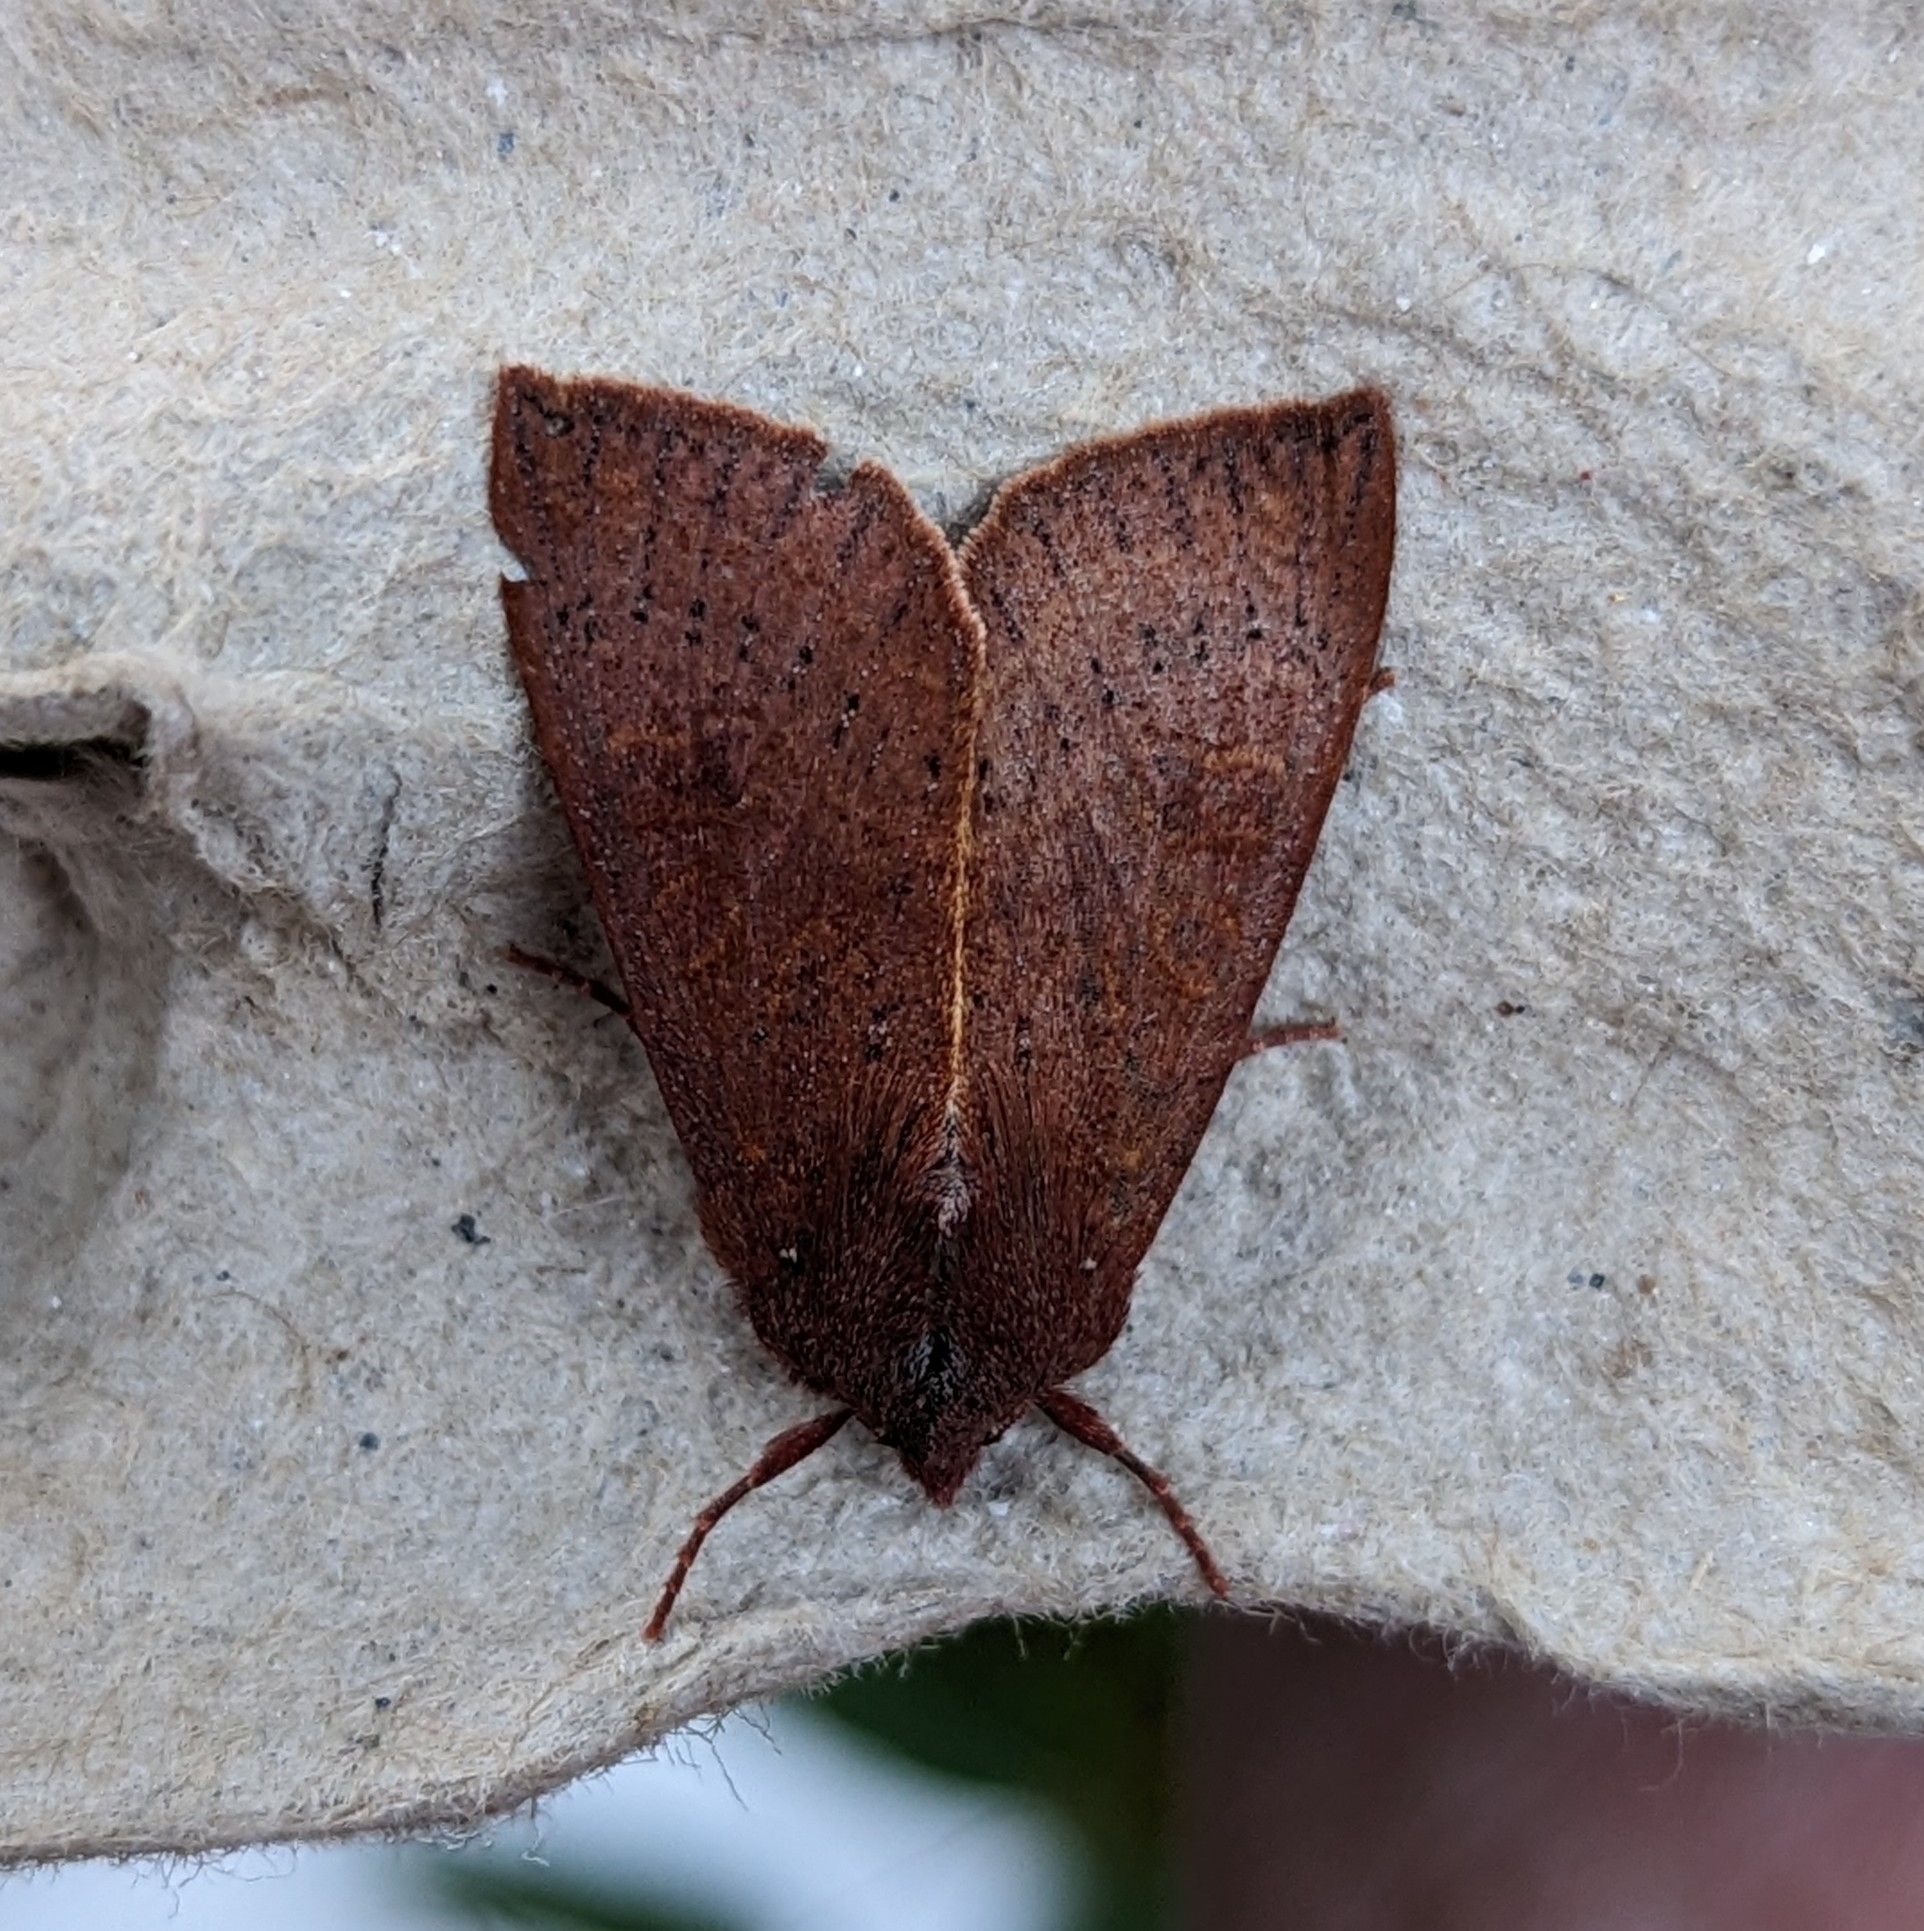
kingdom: Animalia
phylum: Arthropoda
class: Insecta
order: Lepidoptera
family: Noctuidae
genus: Orthosia
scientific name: Orthosia transparens
